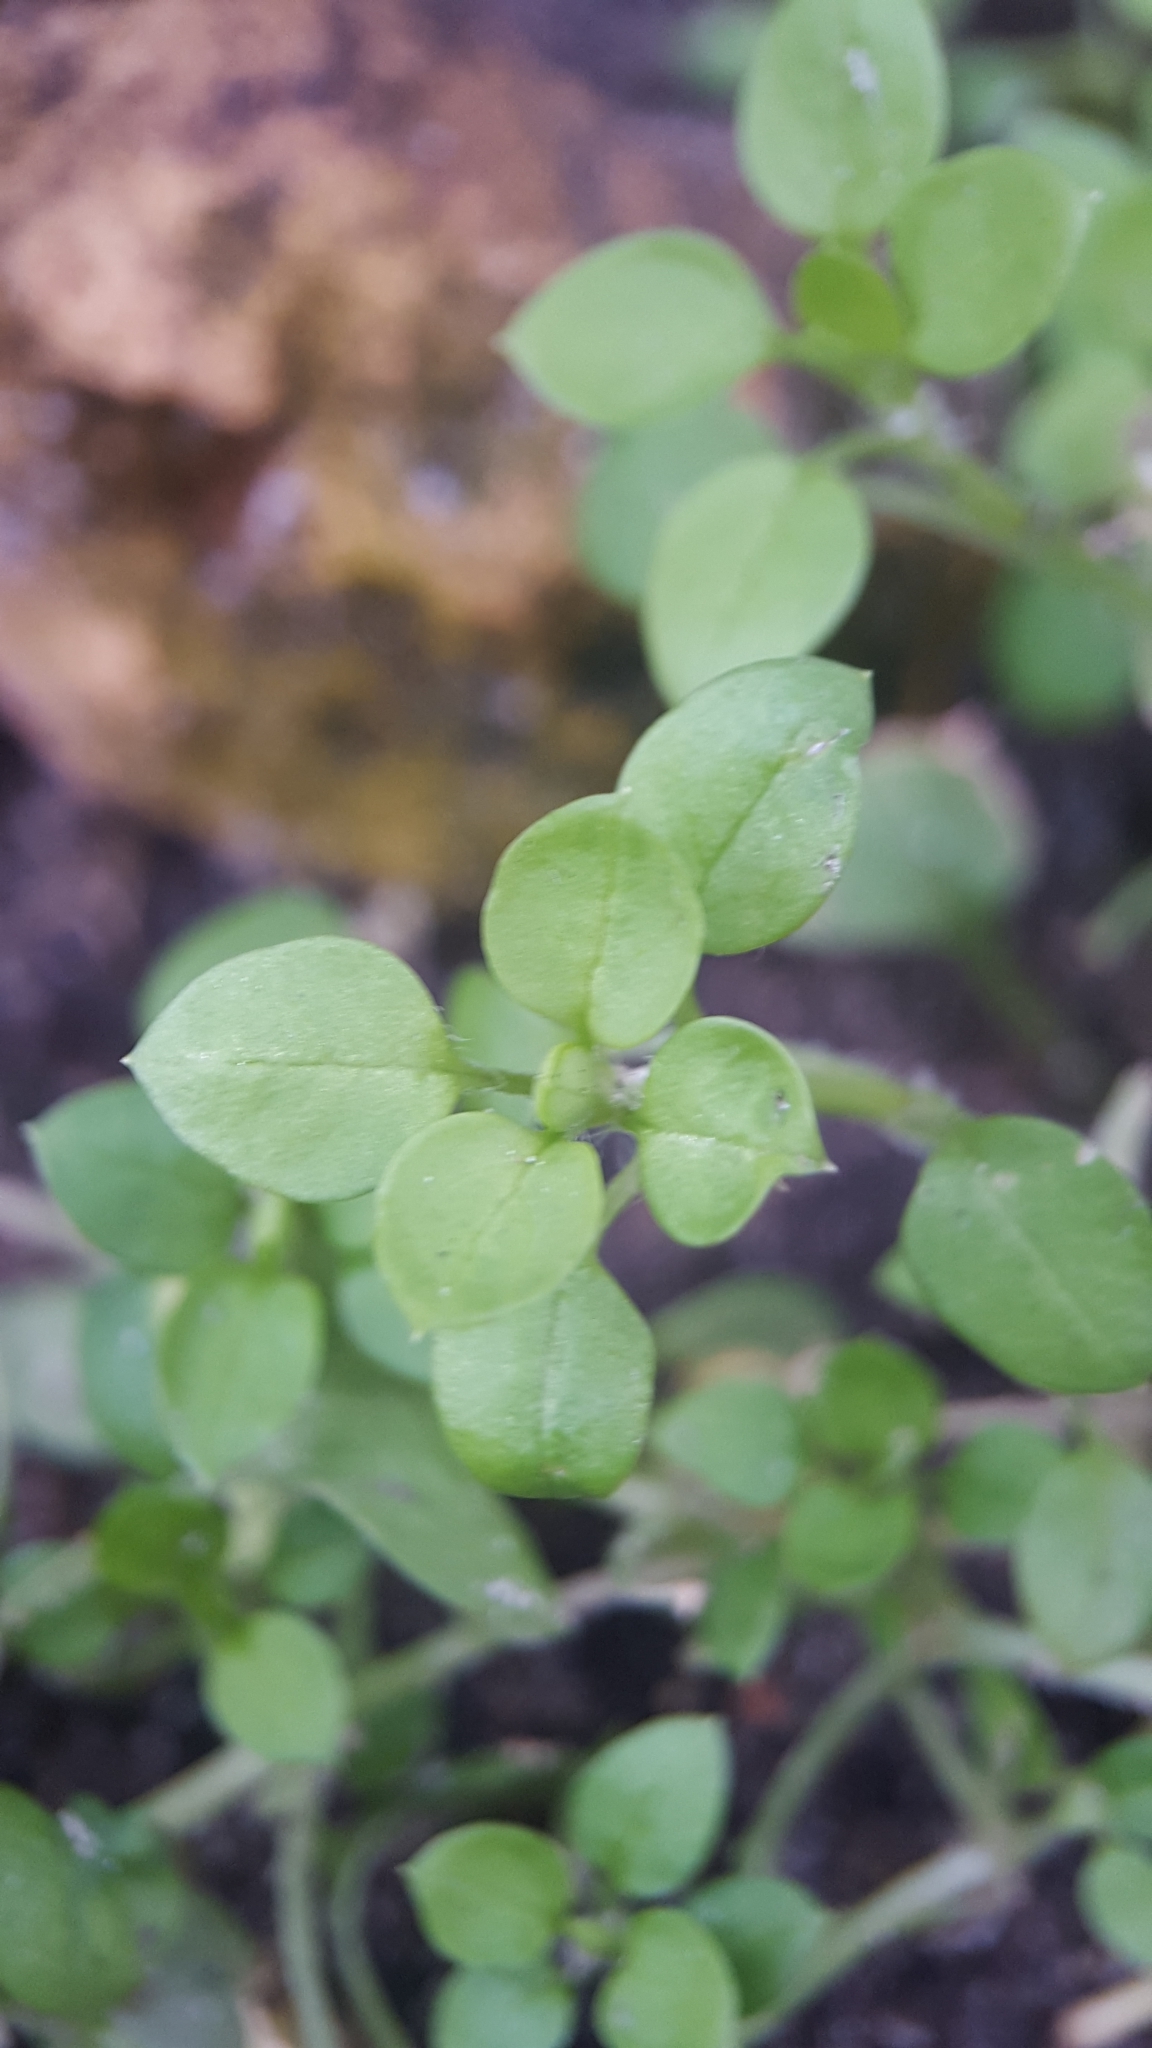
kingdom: Plantae
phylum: Tracheophyta
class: Magnoliopsida
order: Caryophyllales
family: Caryophyllaceae
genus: Stellaria
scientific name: Stellaria media
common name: Common chickweed
